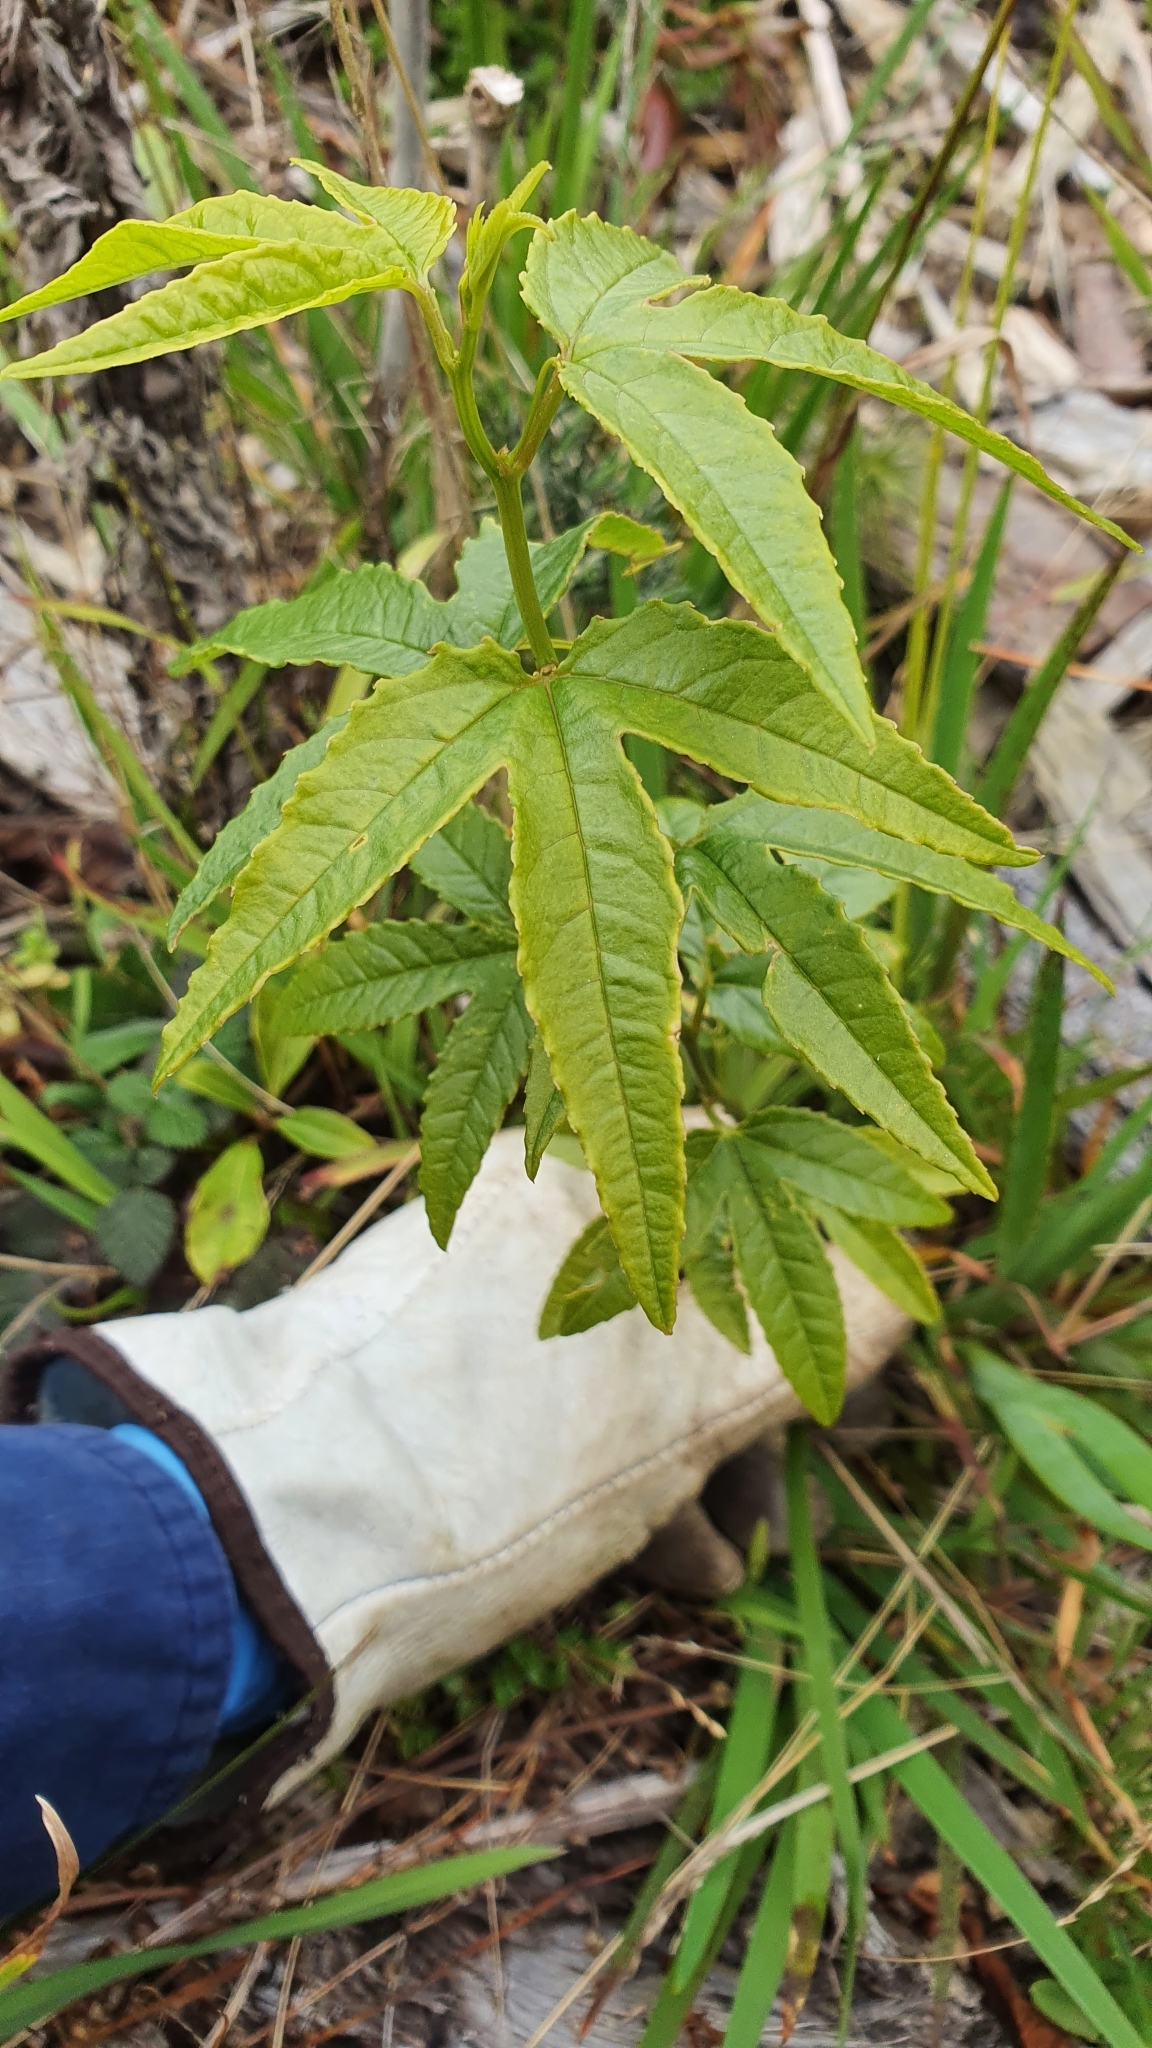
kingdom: Plantae
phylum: Tracheophyta
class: Magnoliopsida
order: Malpighiales
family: Passifloraceae
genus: Passiflora
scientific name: Passiflora tripartita
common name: Banana poka
